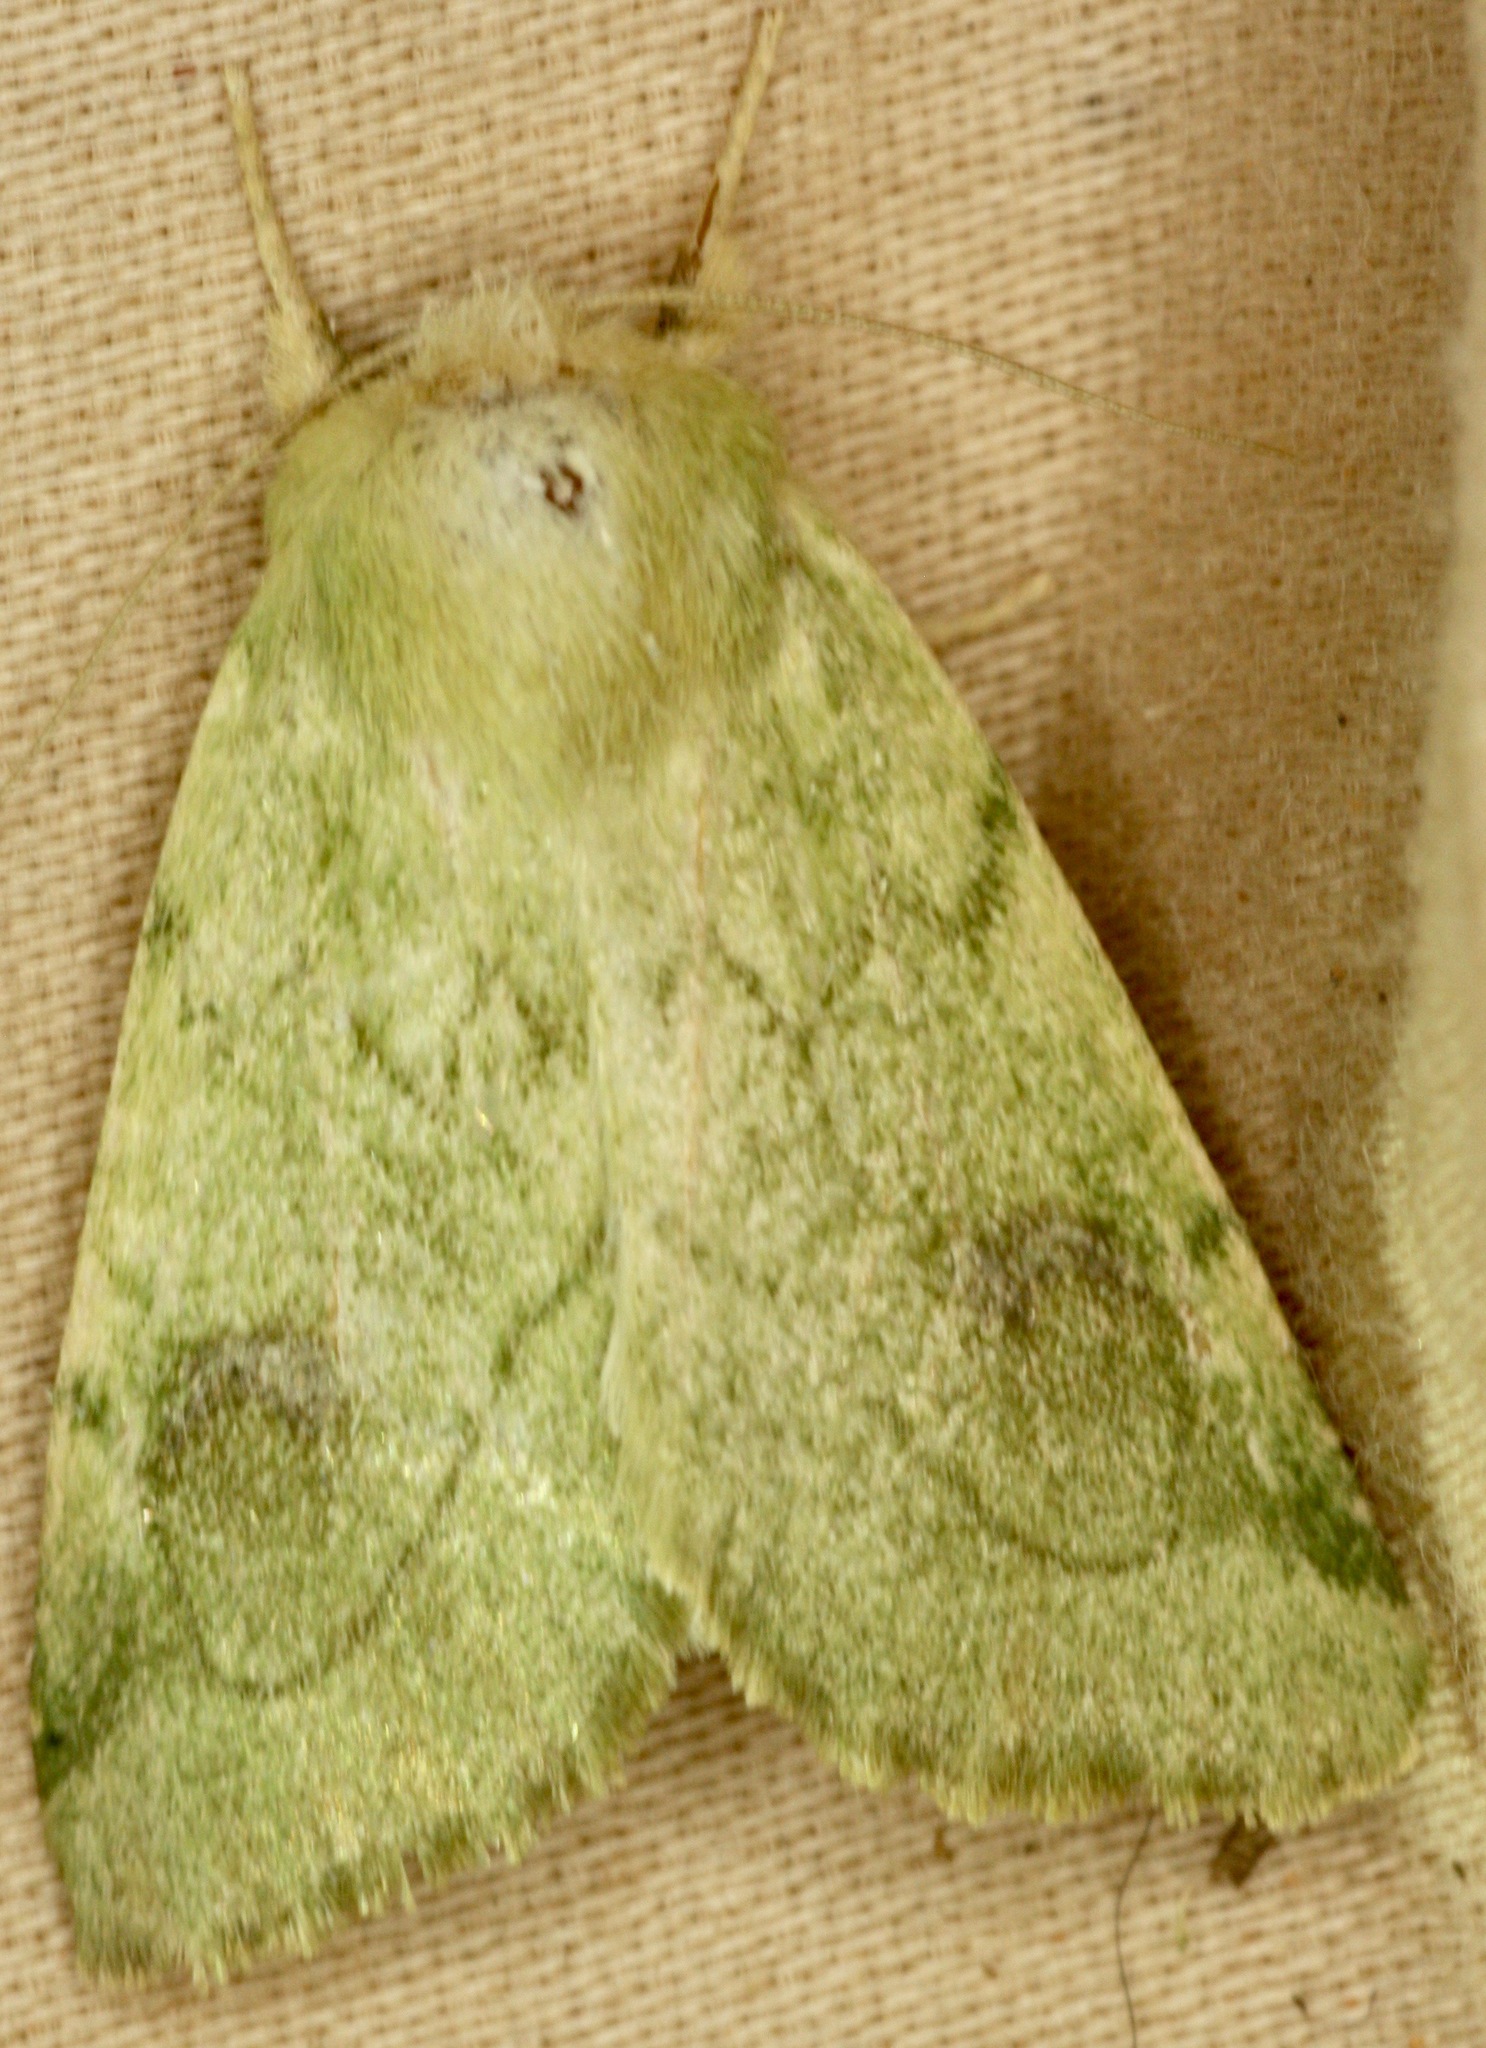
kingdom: Animalia
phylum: Arthropoda
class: Insecta
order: Lepidoptera
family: Noctuidae
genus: Zotheca
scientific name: Zotheca tranquilla
